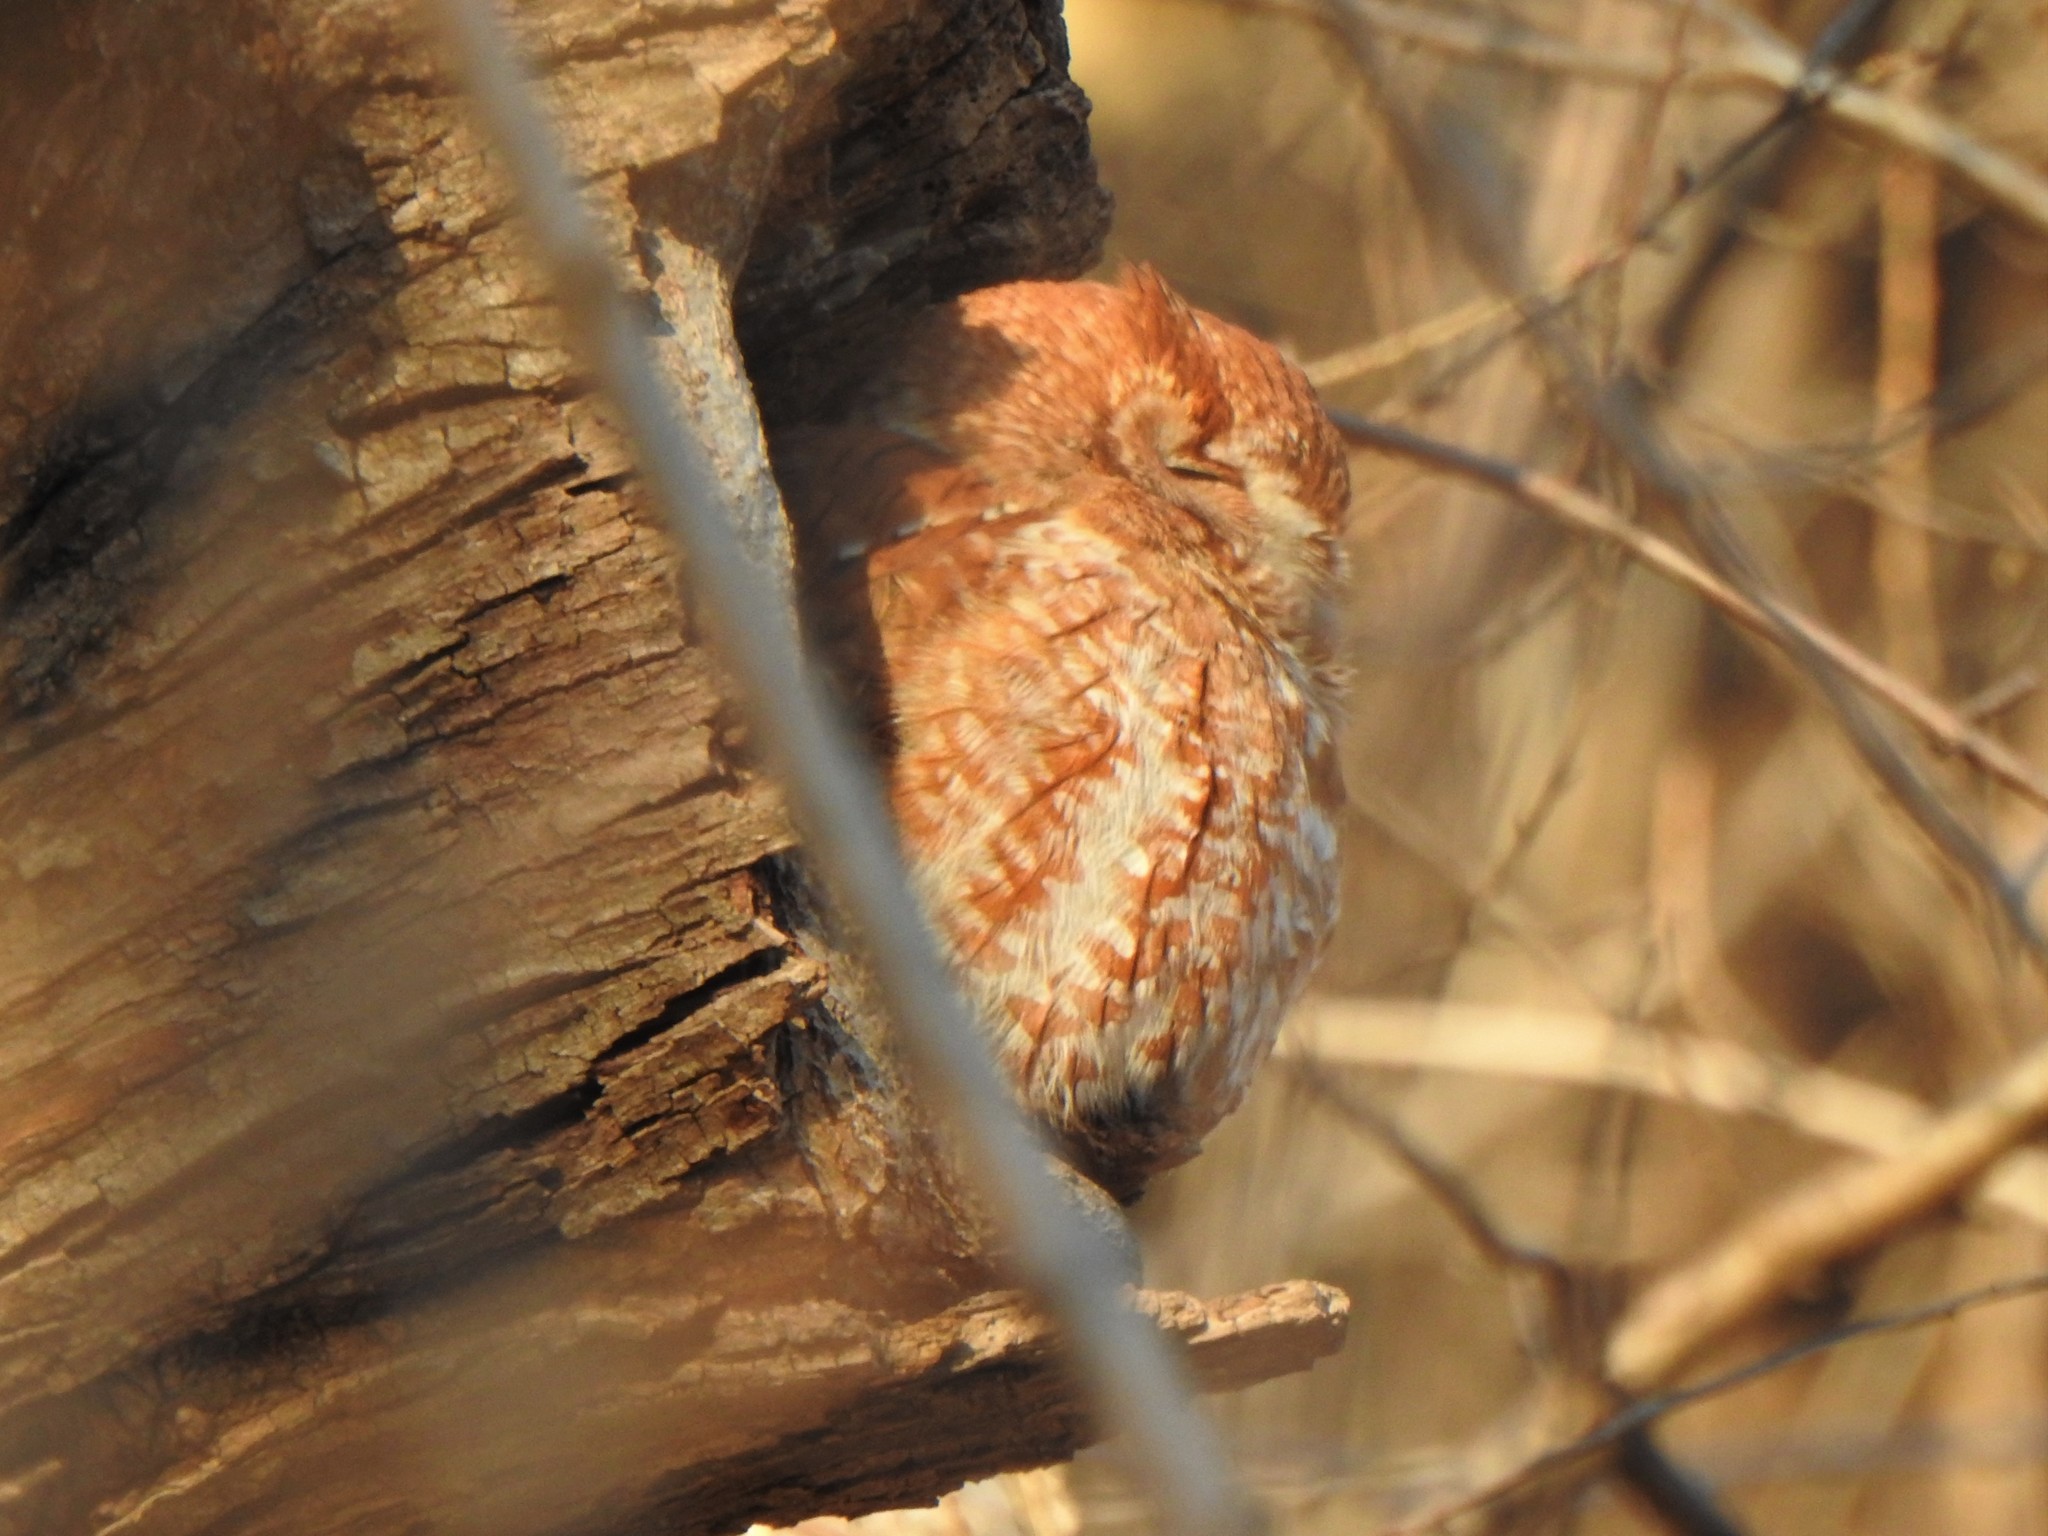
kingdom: Animalia
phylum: Chordata
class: Aves
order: Strigiformes
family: Strigidae
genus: Megascops
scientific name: Megascops asio
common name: Eastern screech-owl
